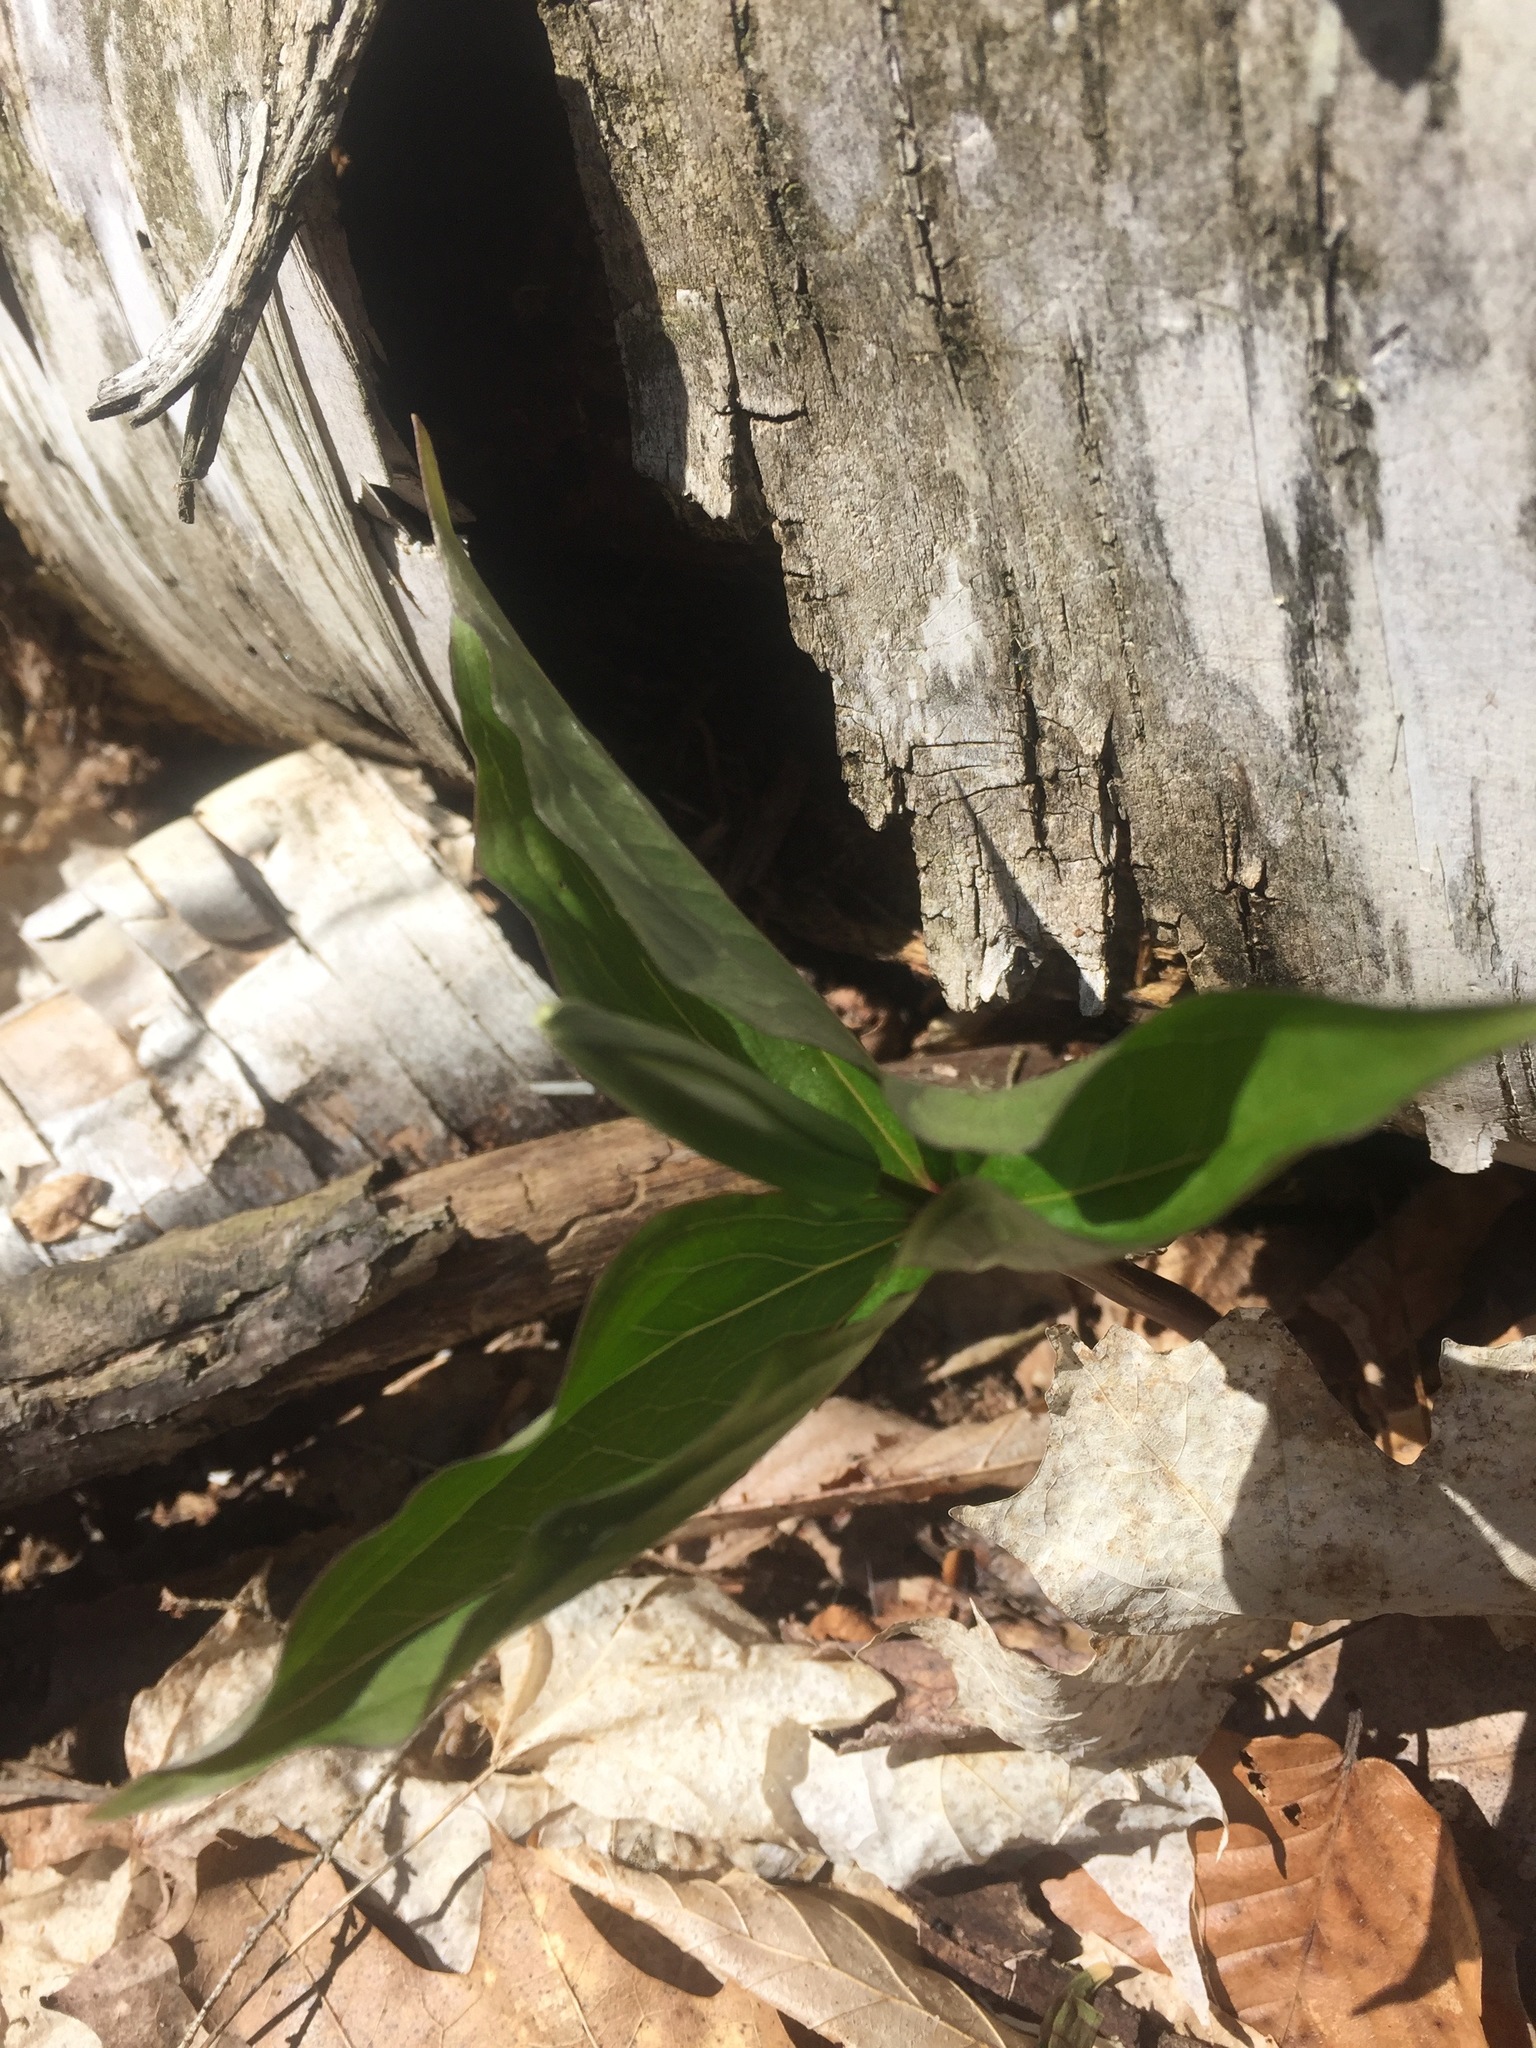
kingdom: Plantae
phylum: Tracheophyta
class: Liliopsida
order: Liliales
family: Melanthiaceae
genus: Trillium
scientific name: Trillium grandiflorum
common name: Great white trillium
